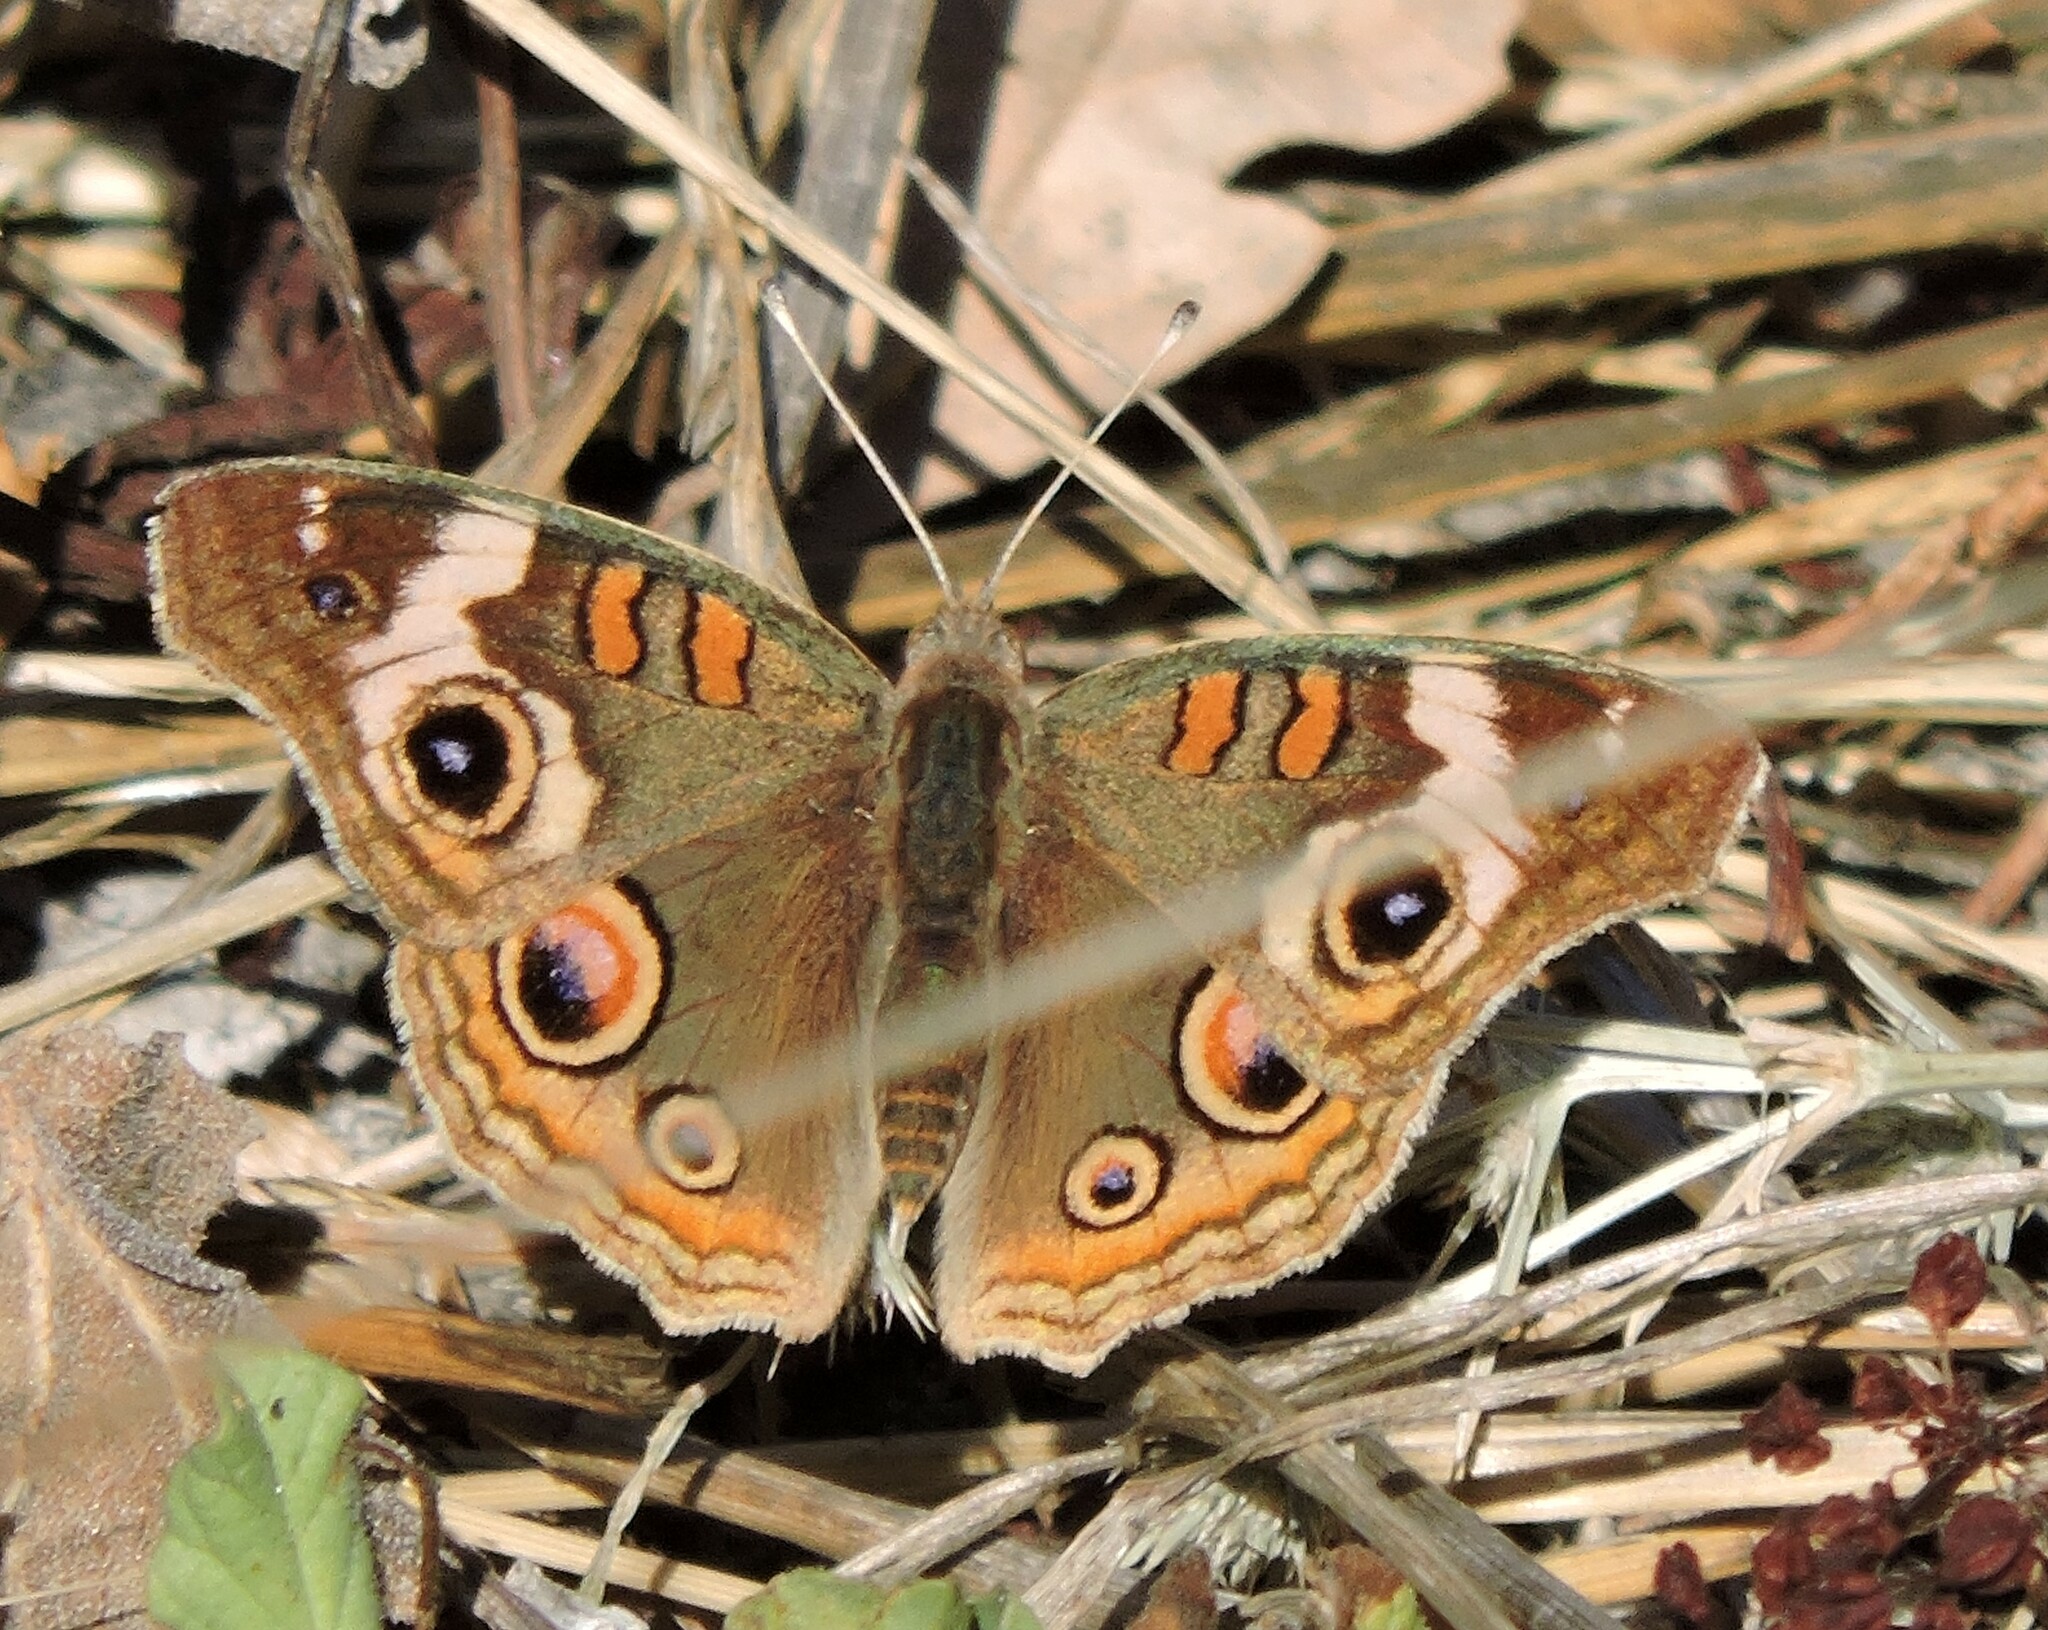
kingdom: Animalia
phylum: Arthropoda
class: Insecta
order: Lepidoptera
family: Nymphalidae
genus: Junonia
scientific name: Junonia grisea
